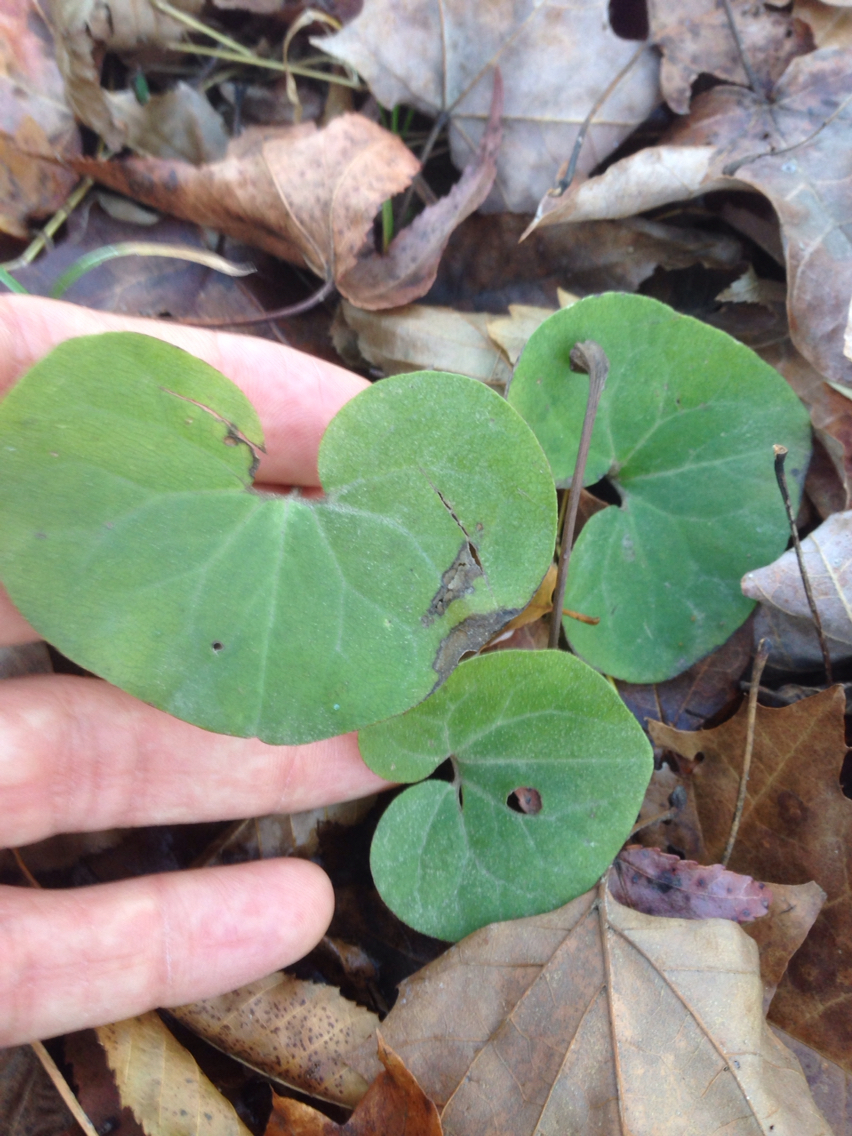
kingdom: Plantae
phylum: Tracheophyta
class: Magnoliopsida
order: Piperales
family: Aristolochiaceae
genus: Asarum
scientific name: Asarum canadense
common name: Wild ginger
